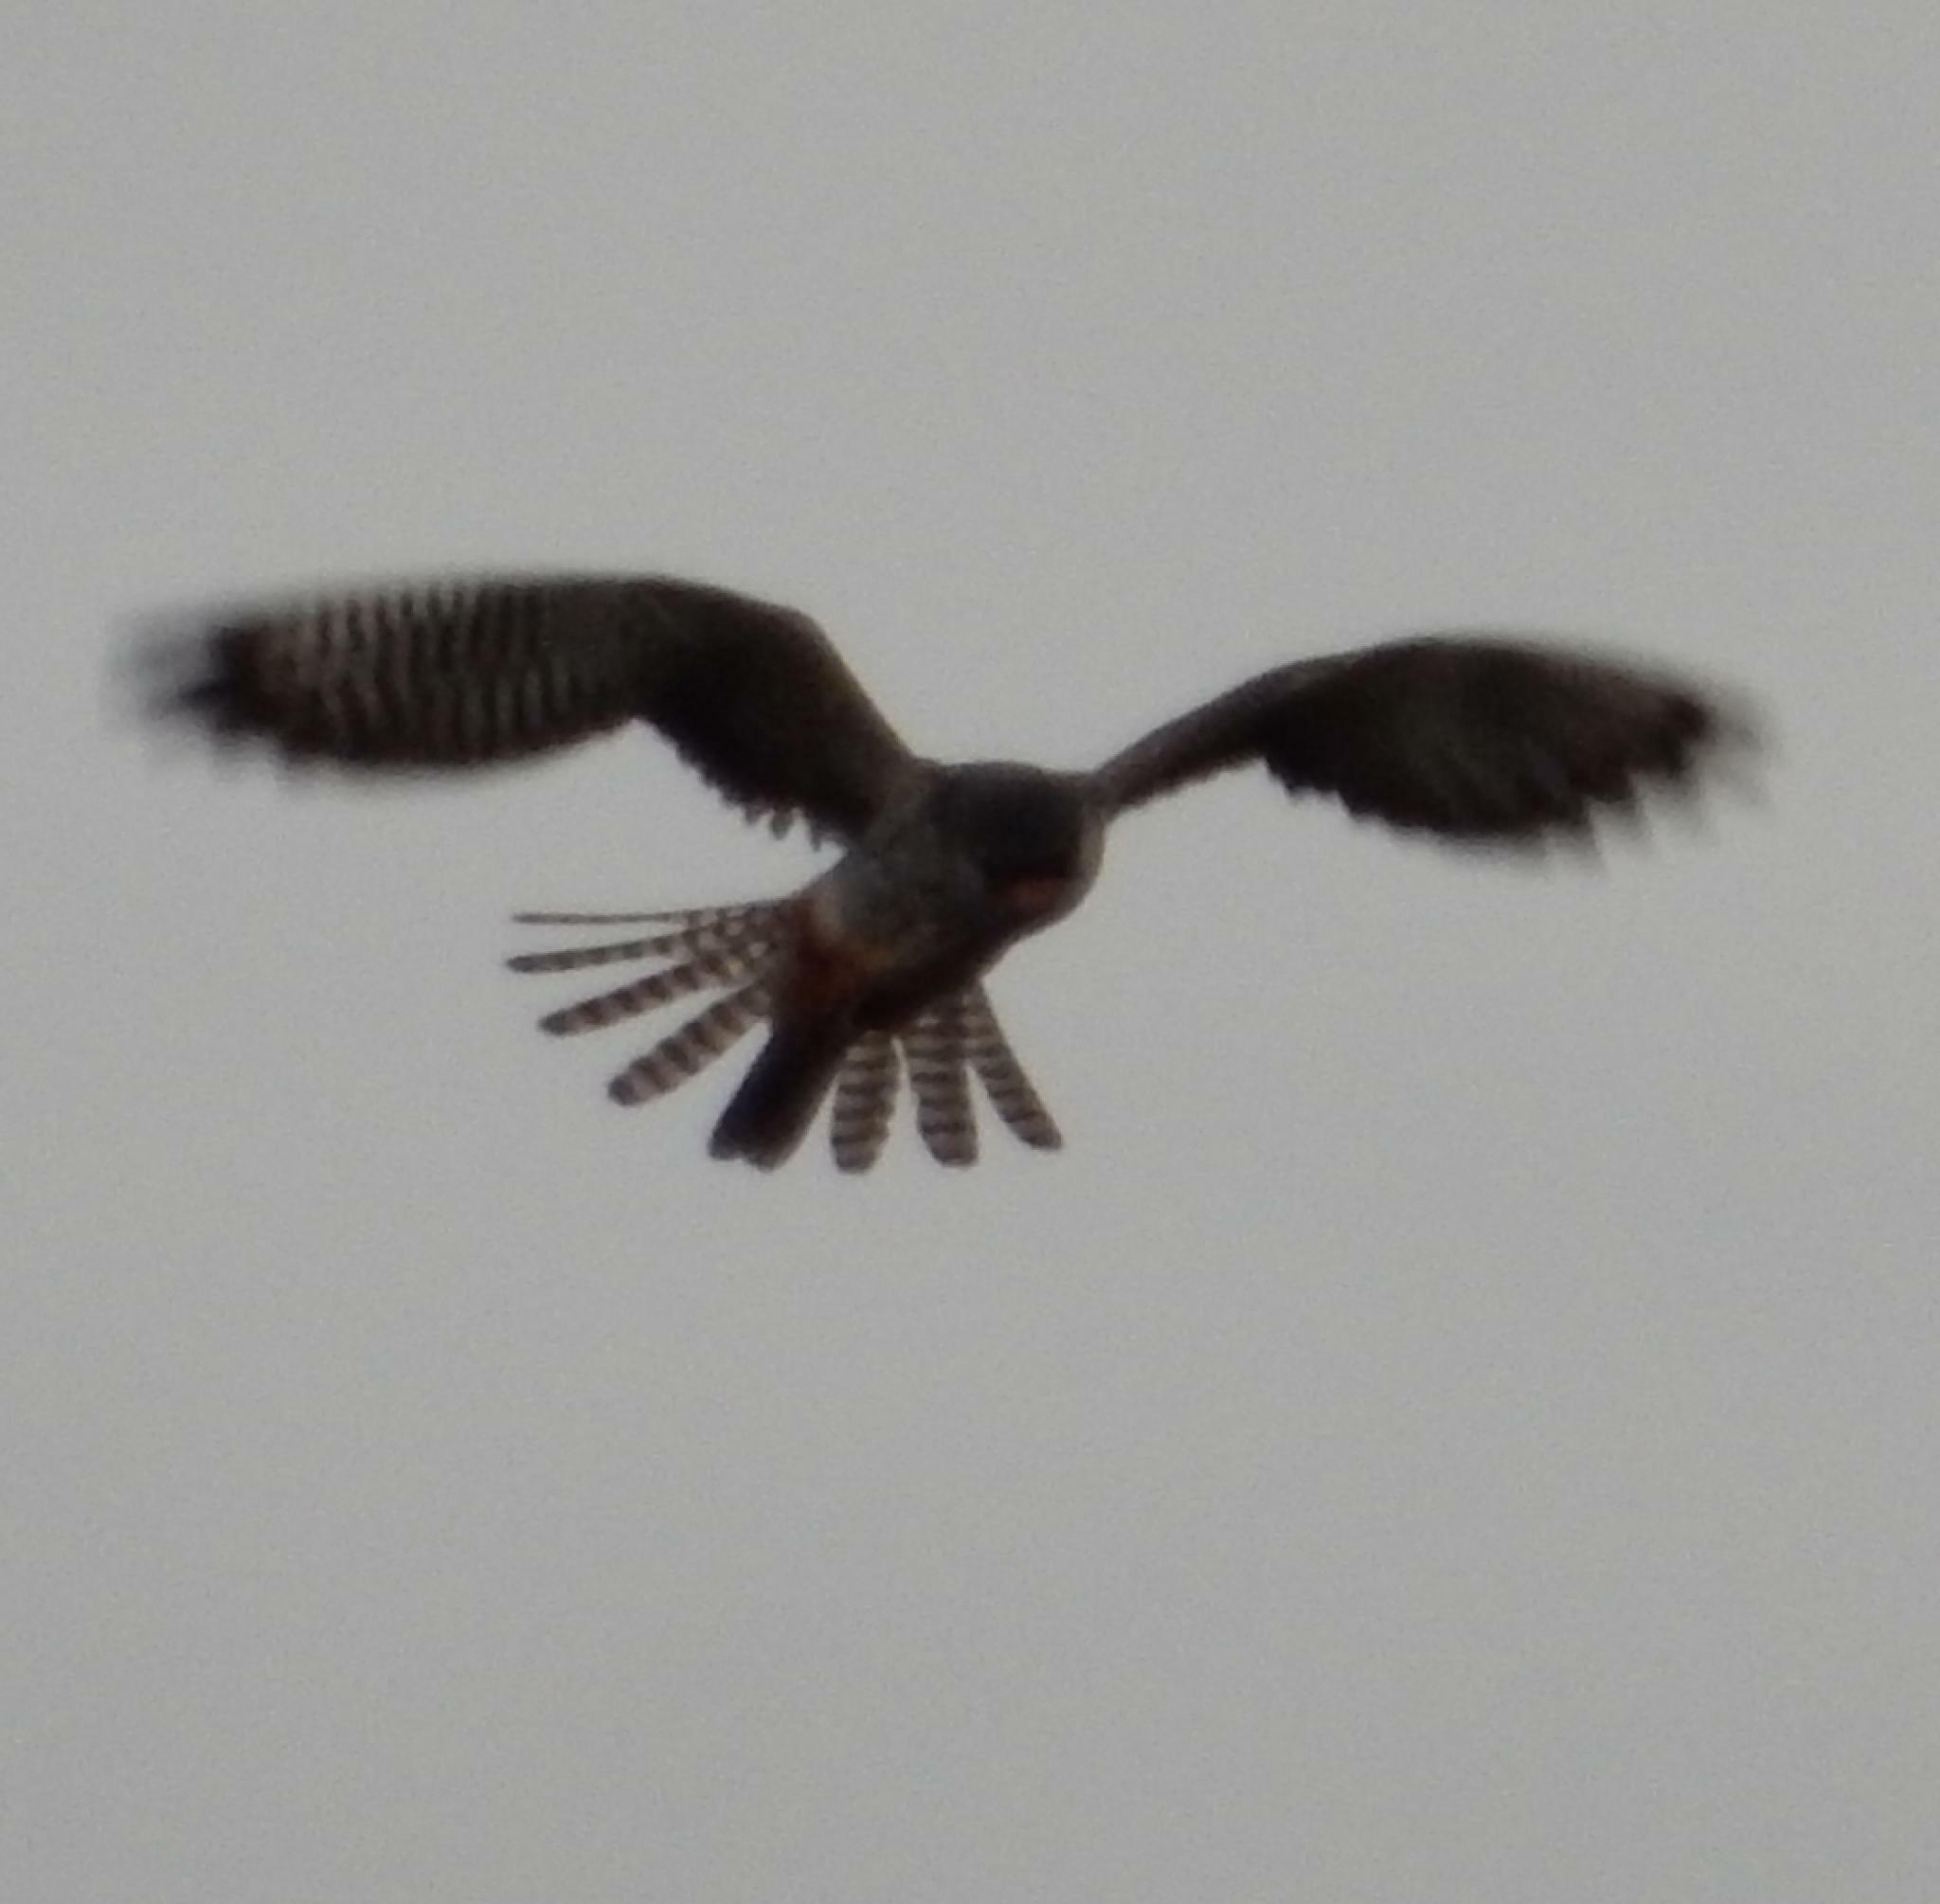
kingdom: Animalia
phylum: Chordata
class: Aves
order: Falconiformes
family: Falconidae
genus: Falco
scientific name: Falco amurensis
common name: Amur falcon
